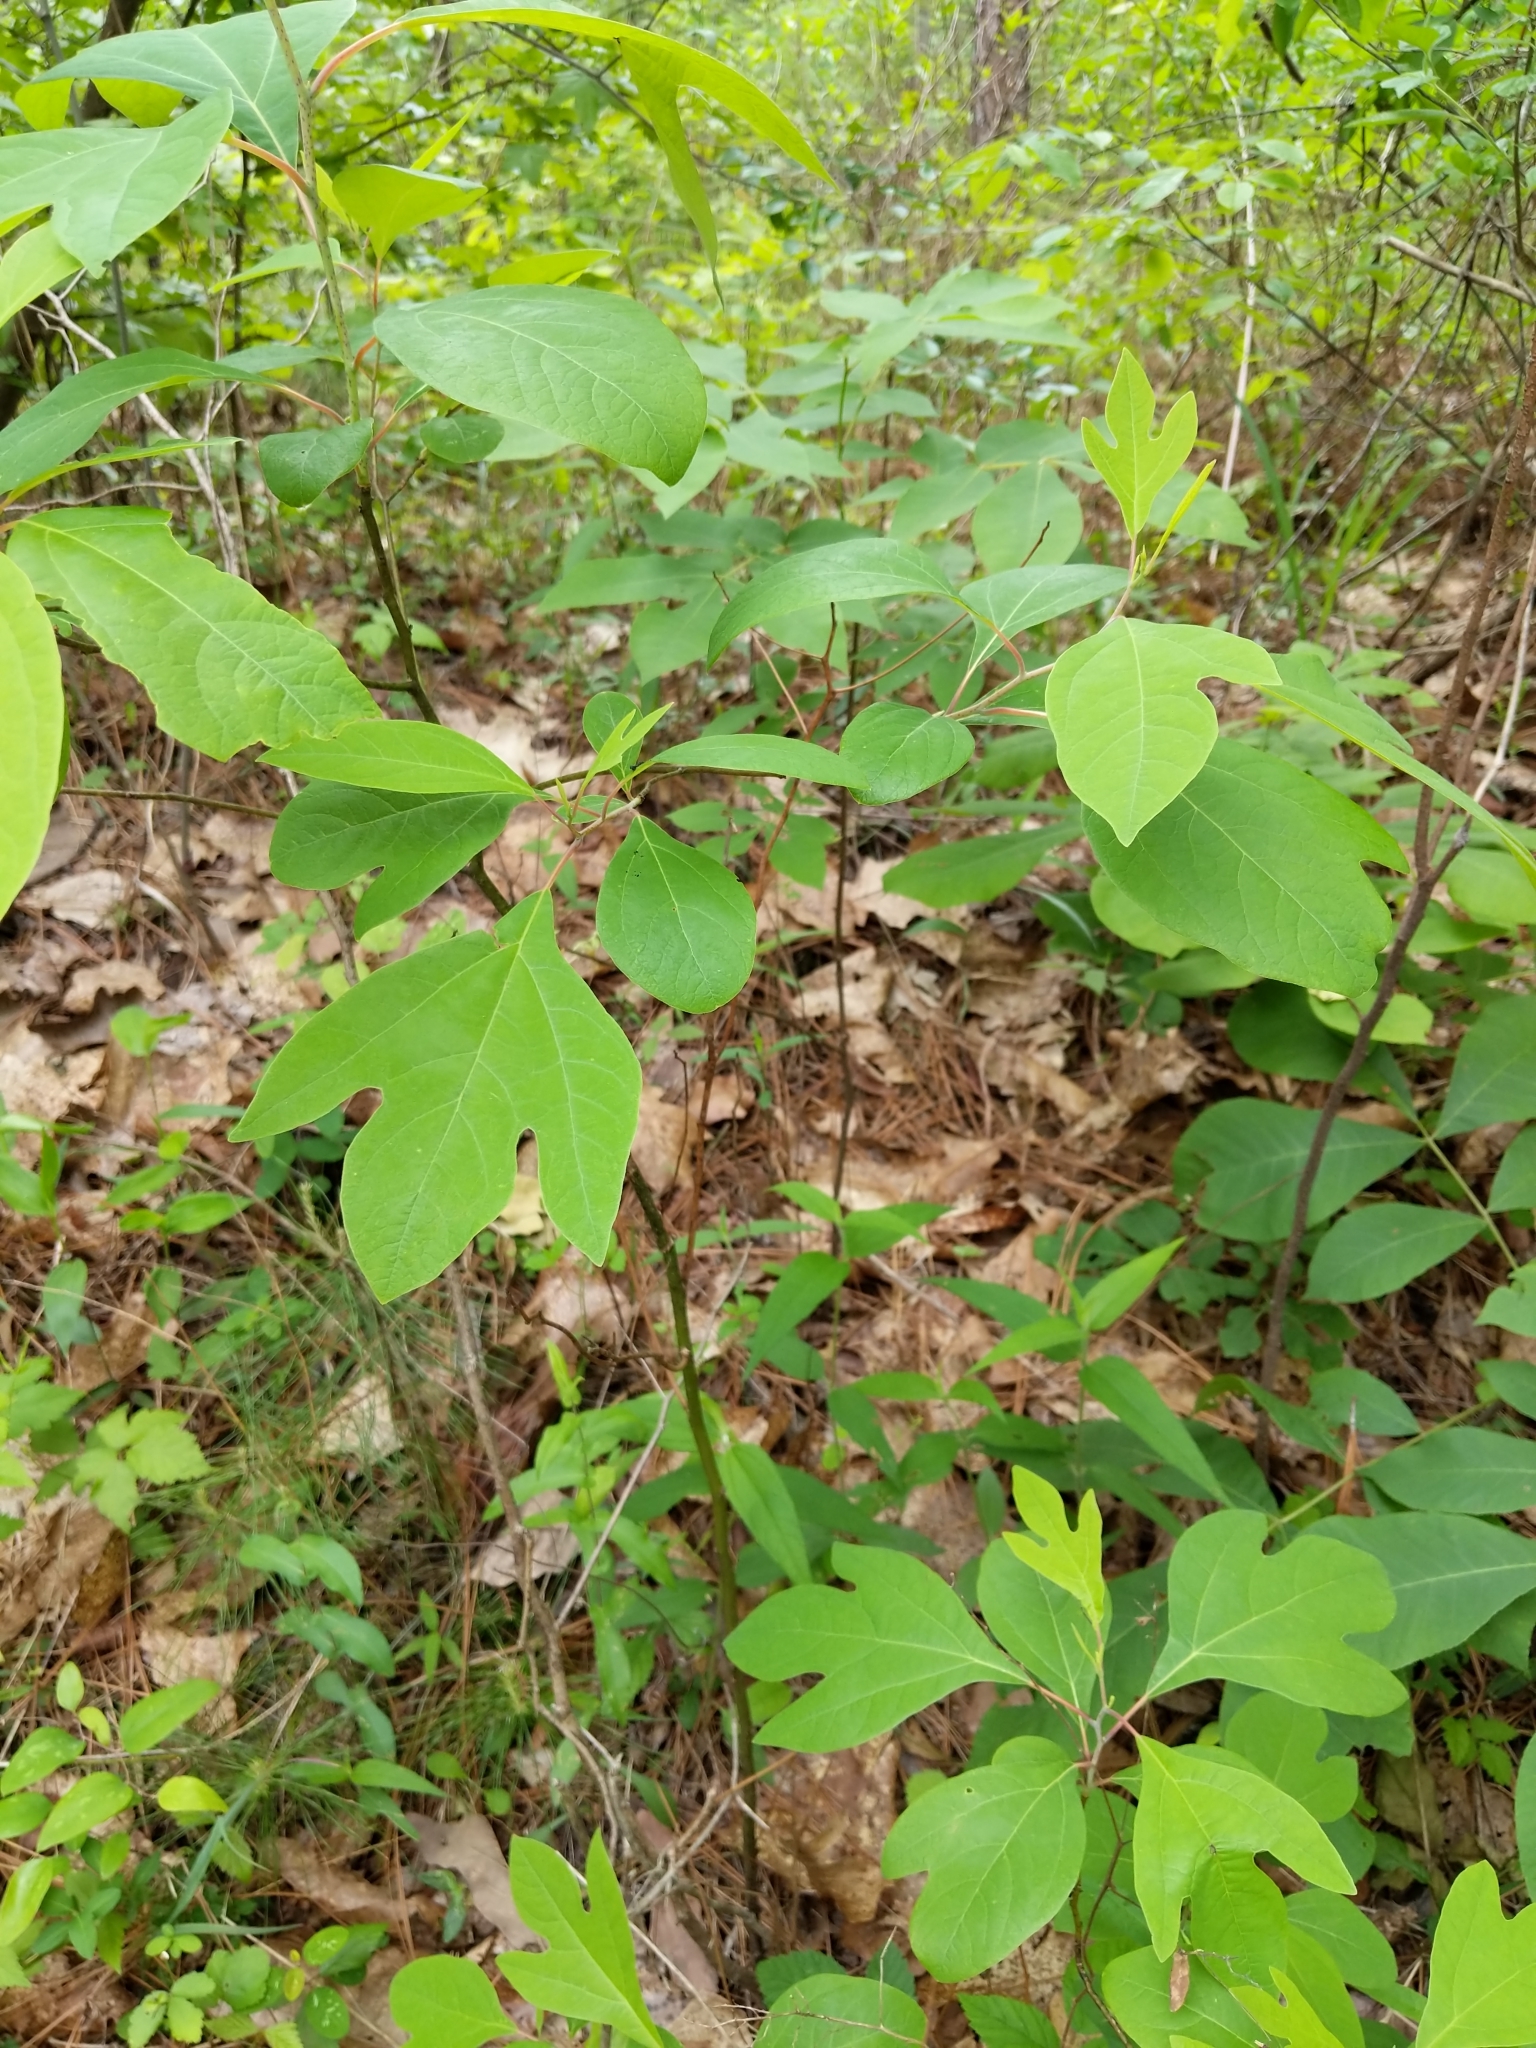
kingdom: Plantae
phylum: Tracheophyta
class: Magnoliopsida
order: Laurales
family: Lauraceae
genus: Sassafras
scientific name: Sassafras albidum
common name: Sassafras
